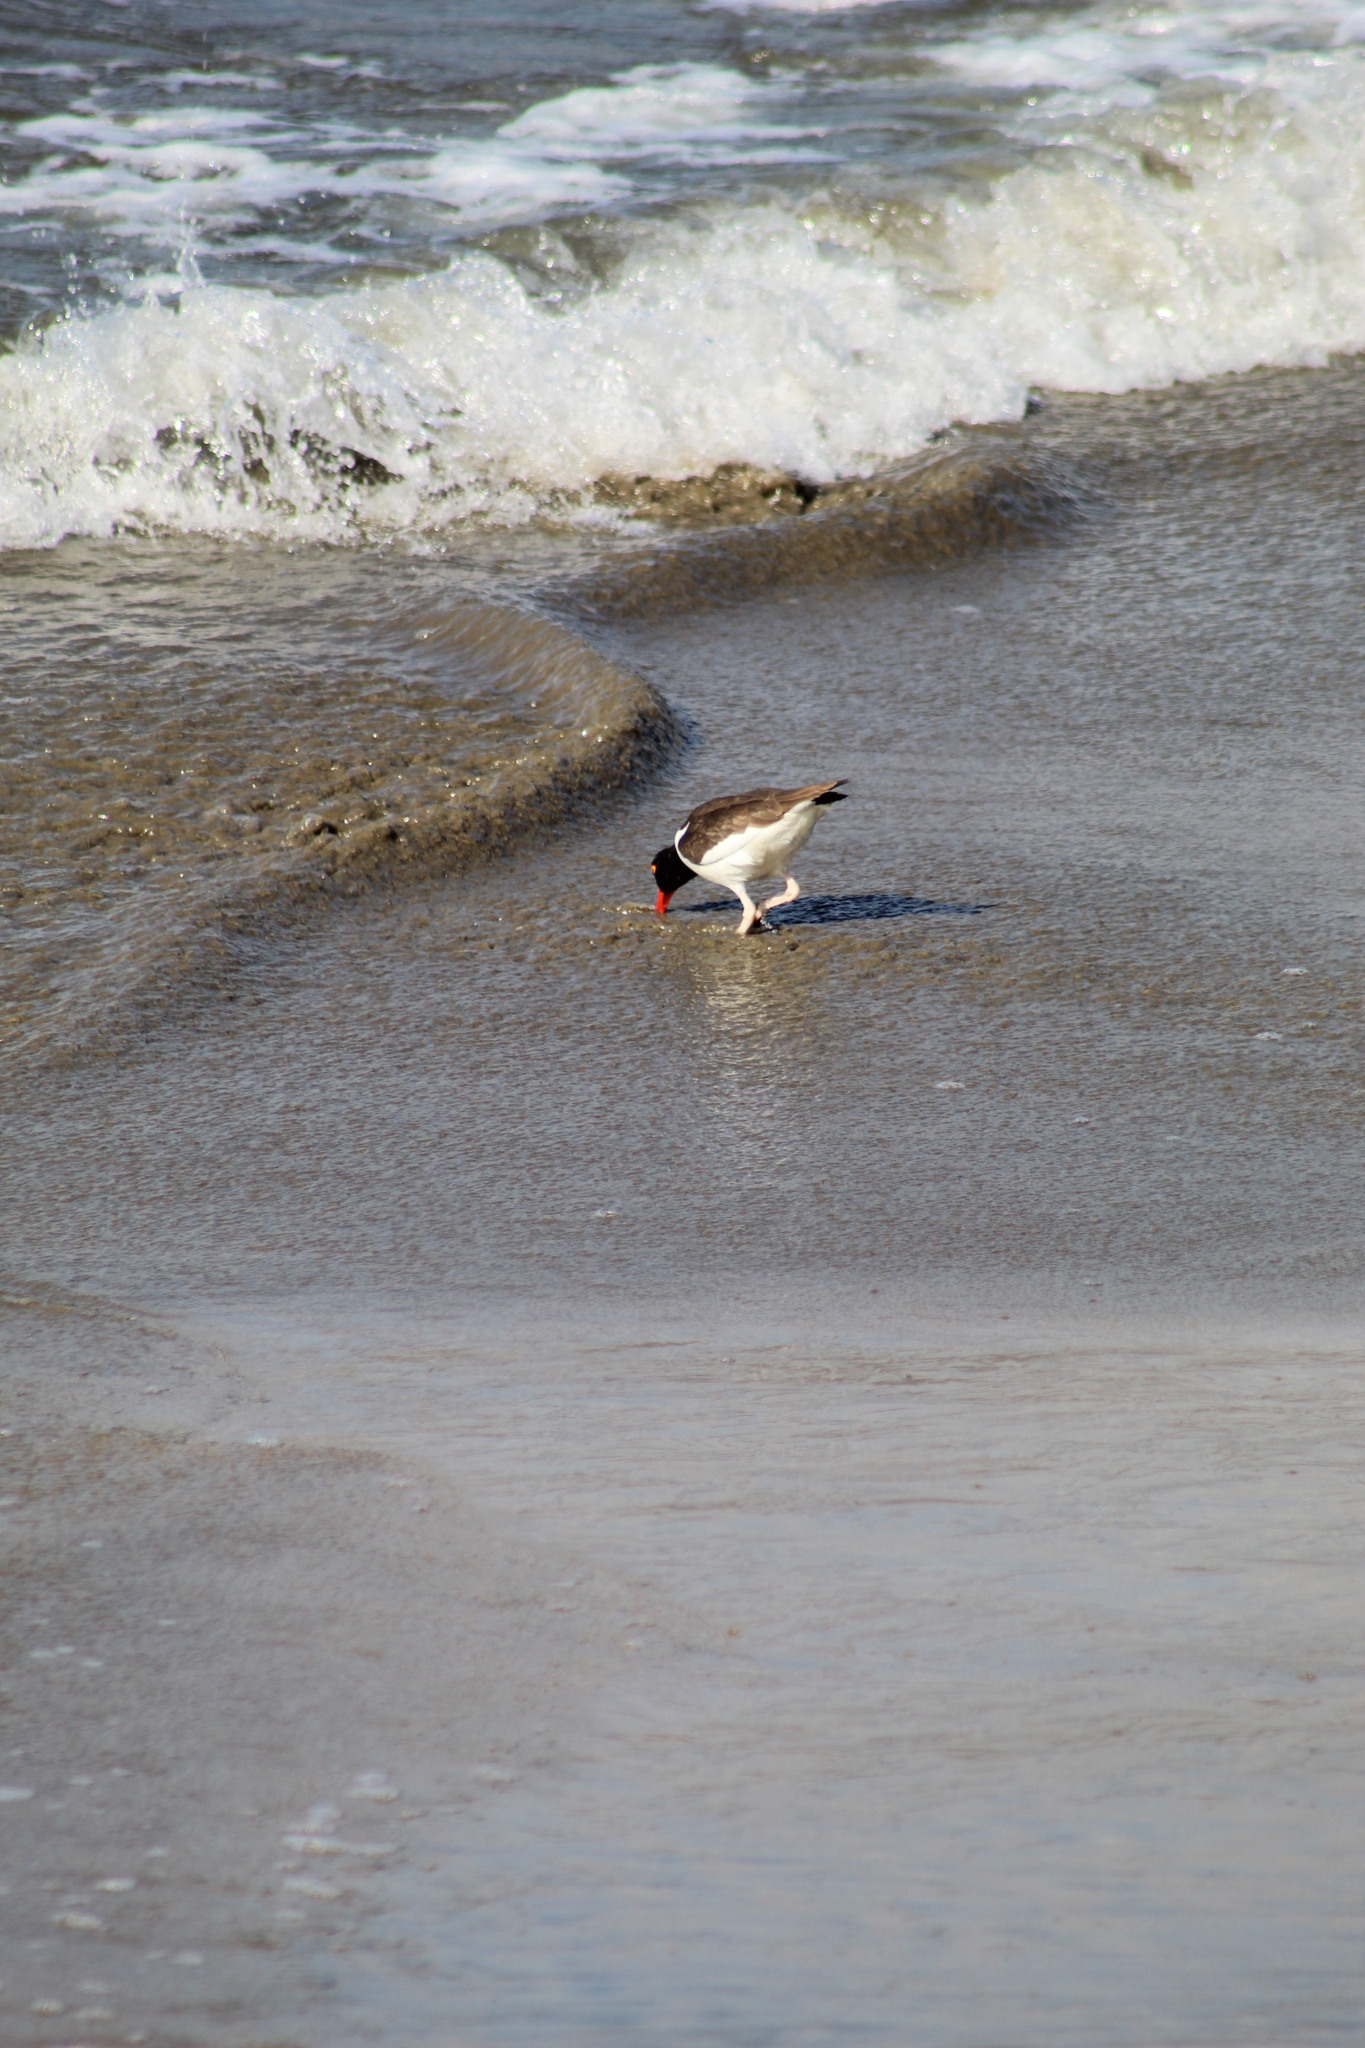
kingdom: Animalia
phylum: Chordata
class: Aves
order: Charadriiformes
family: Haematopodidae
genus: Haematopus
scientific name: Haematopus palliatus
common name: American oystercatcher
